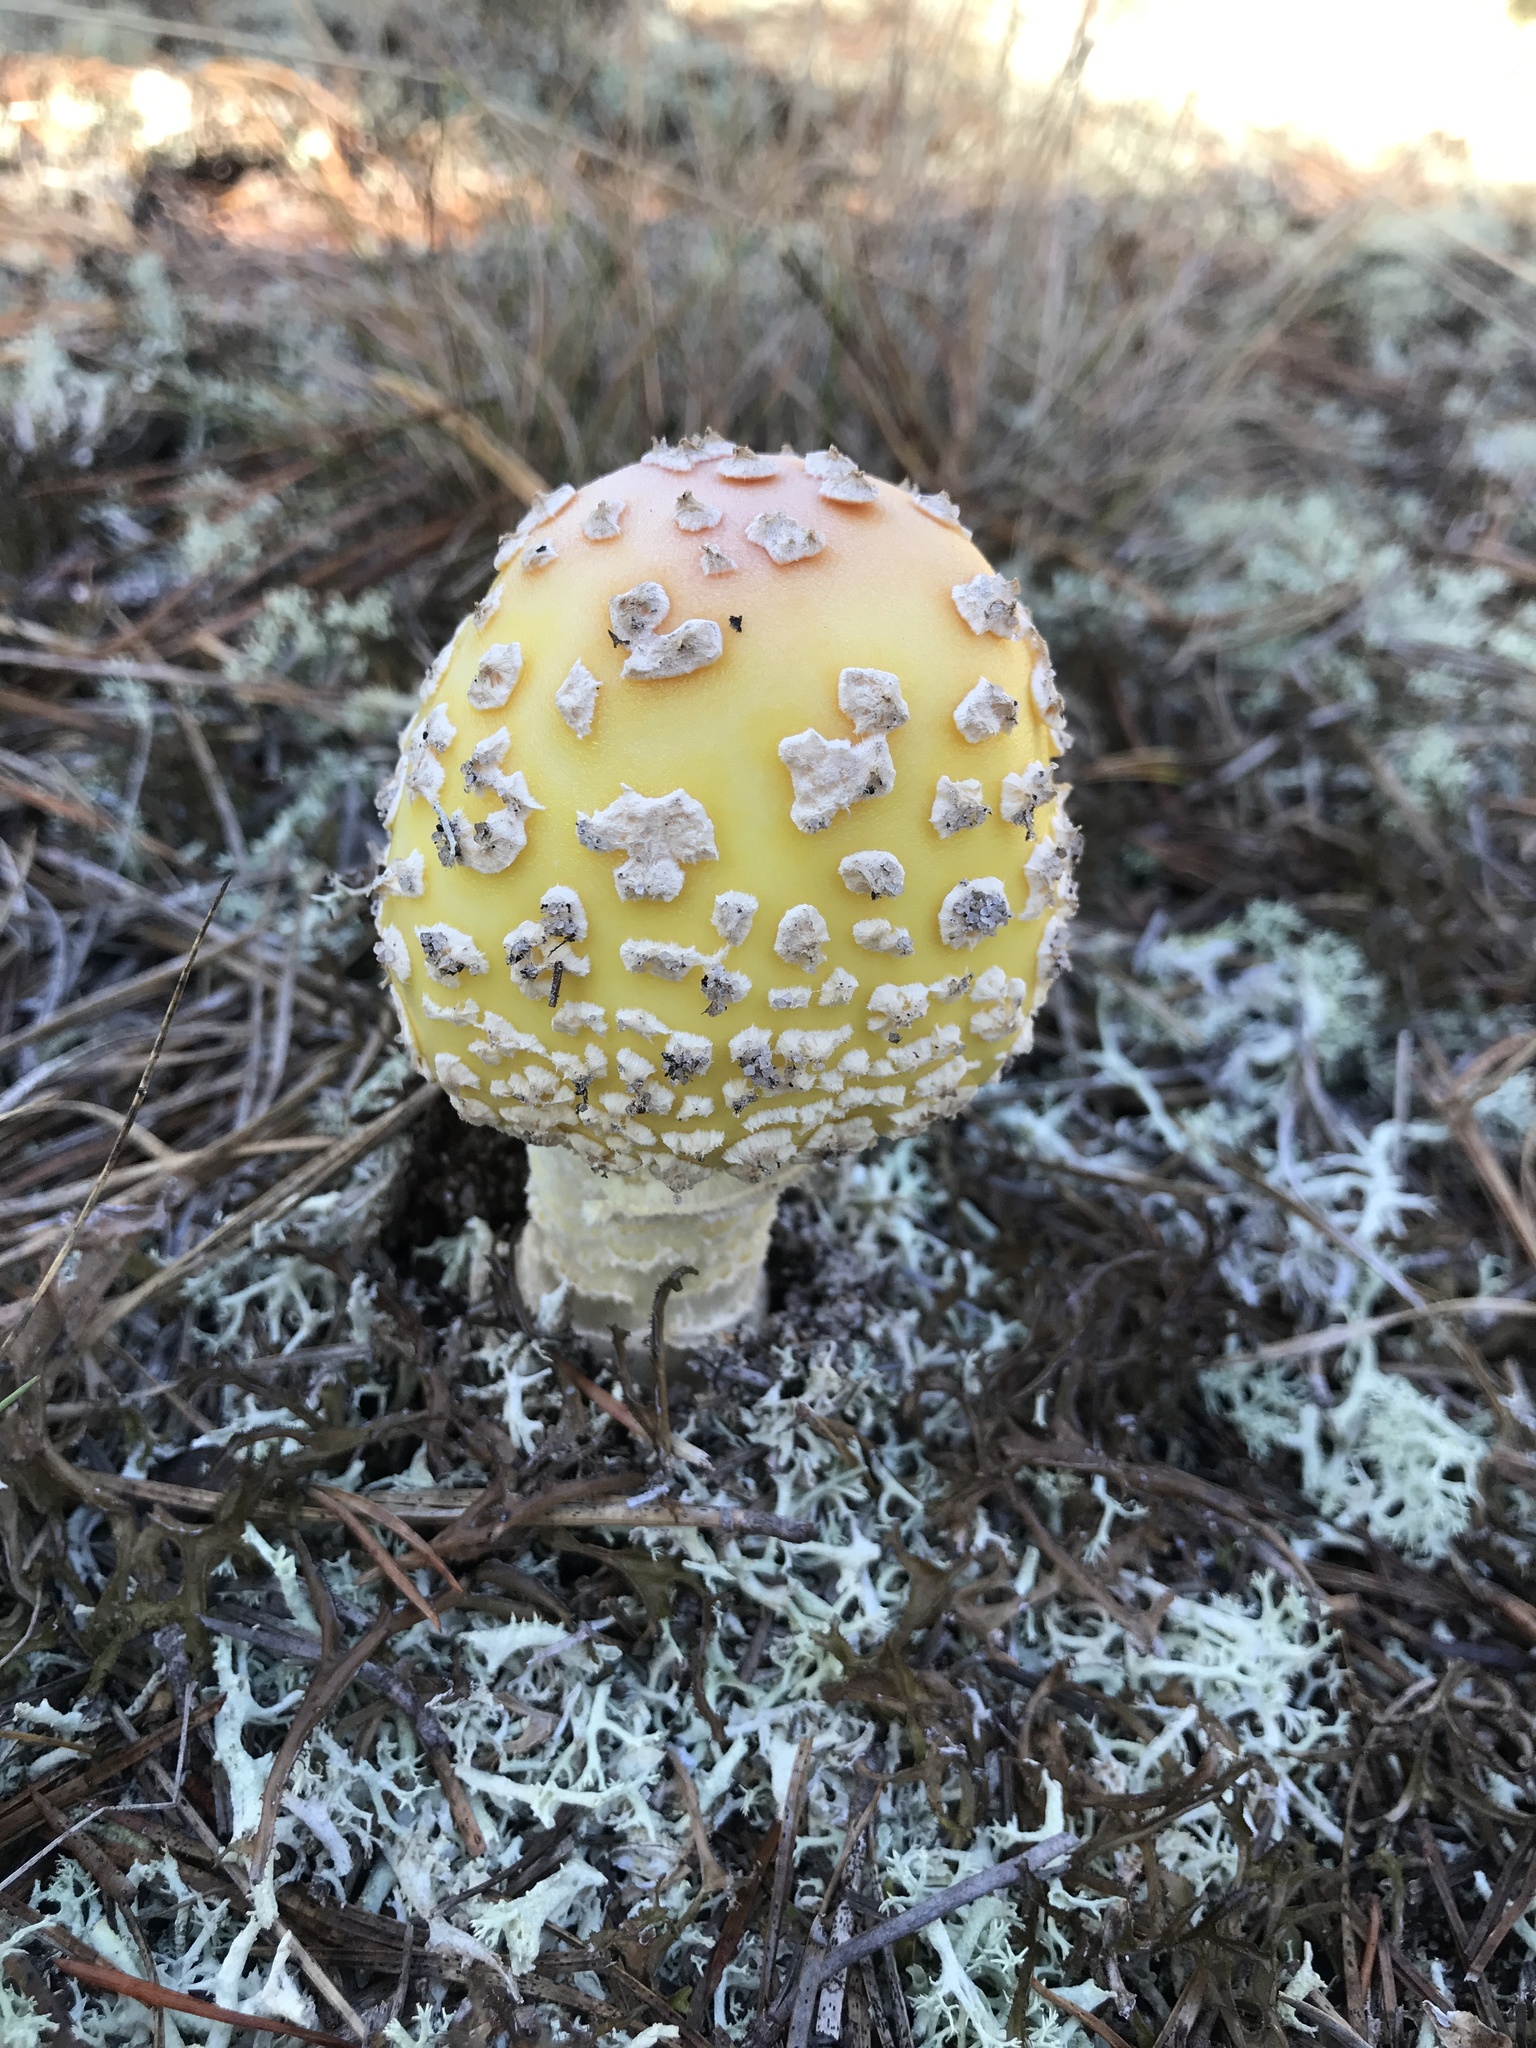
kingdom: Fungi
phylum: Basidiomycota
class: Agaricomycetes
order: Agaricales
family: Amanitaceae
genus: Amanita
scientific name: Amanita muscaria
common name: Fly agaric
